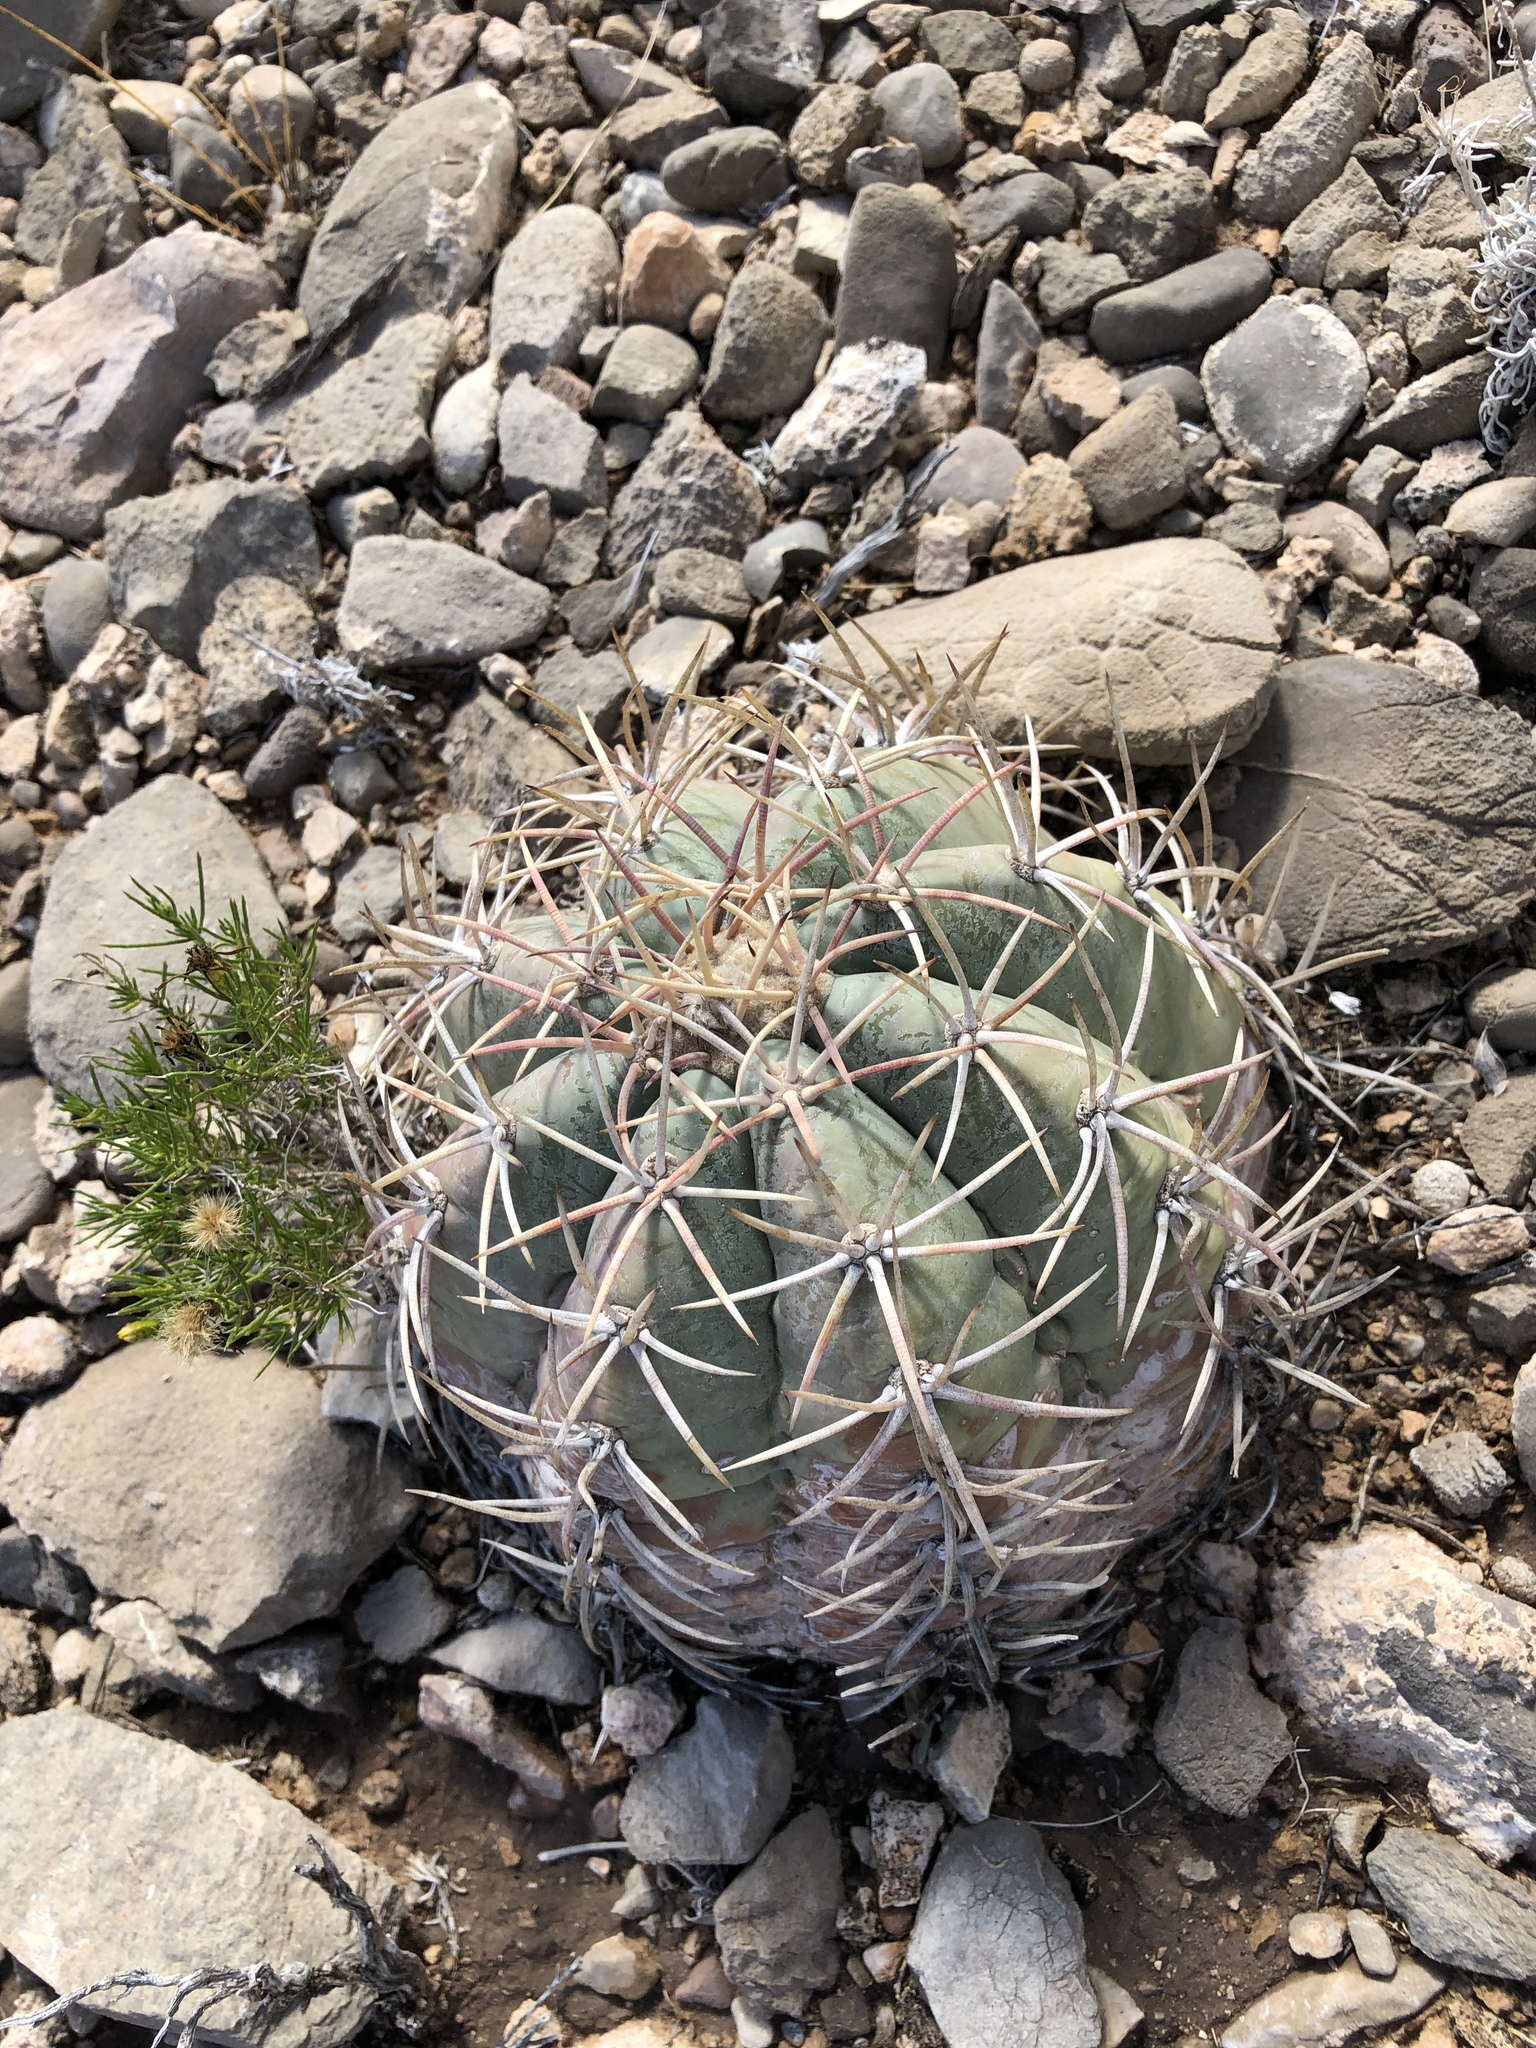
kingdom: Plantae
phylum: Tracheophyta
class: Magnoliopsida
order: Caryophyllales
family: Cactaceae
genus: Echinocactus
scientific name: Echinocactus horizonthalonius
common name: Devilshead
